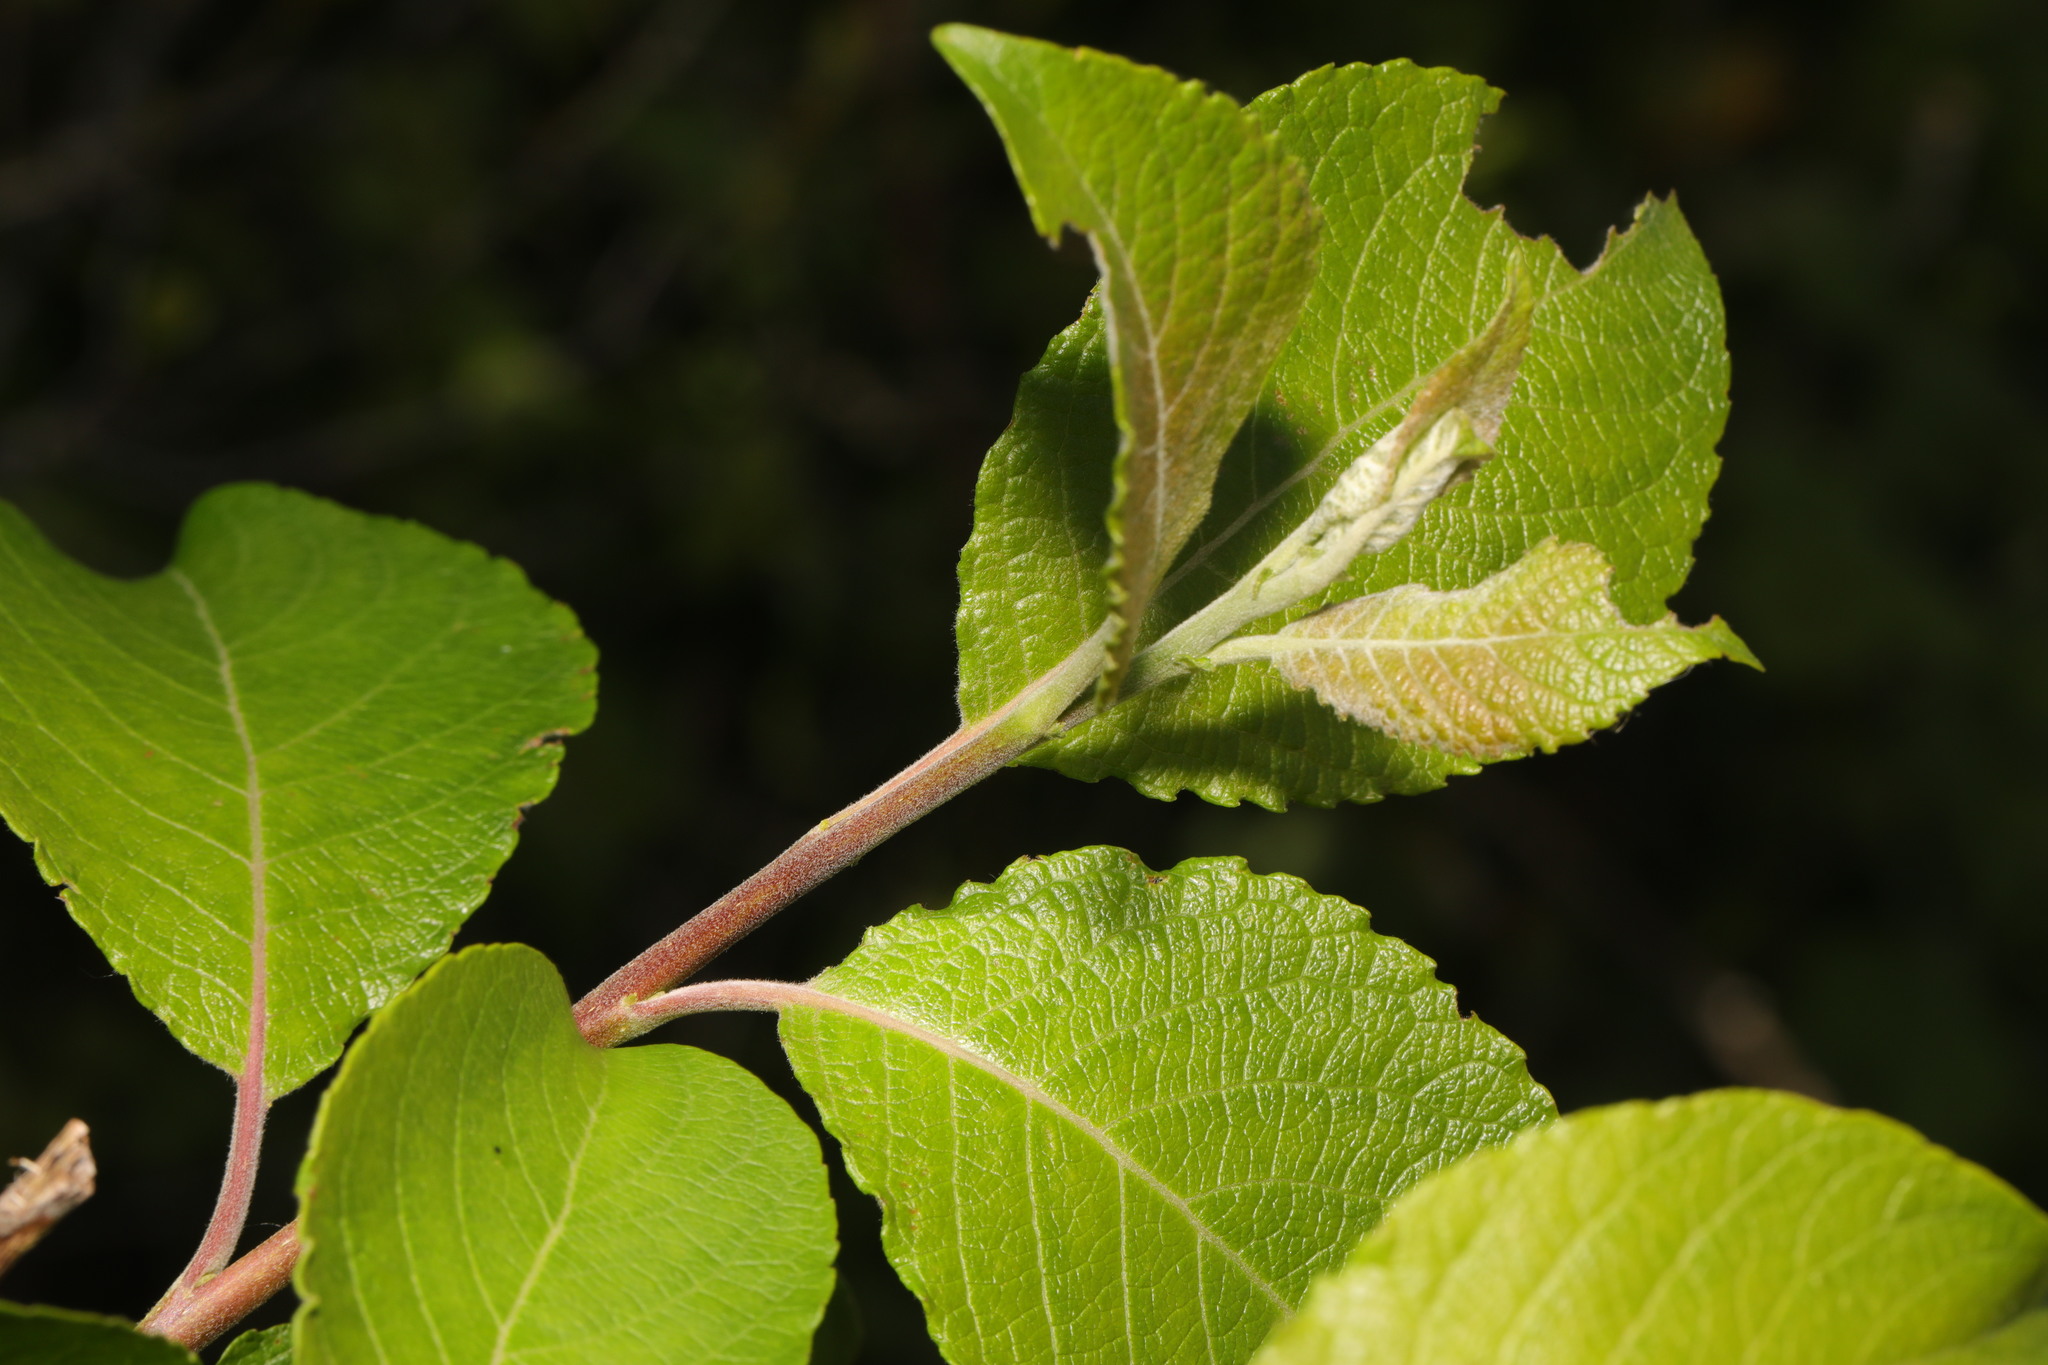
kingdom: Plantae
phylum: Tracheophyta
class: Magnoliopsida
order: Malpighiales
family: Salicaceae
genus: Salix
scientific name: Salix caprea
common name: Goat willow
